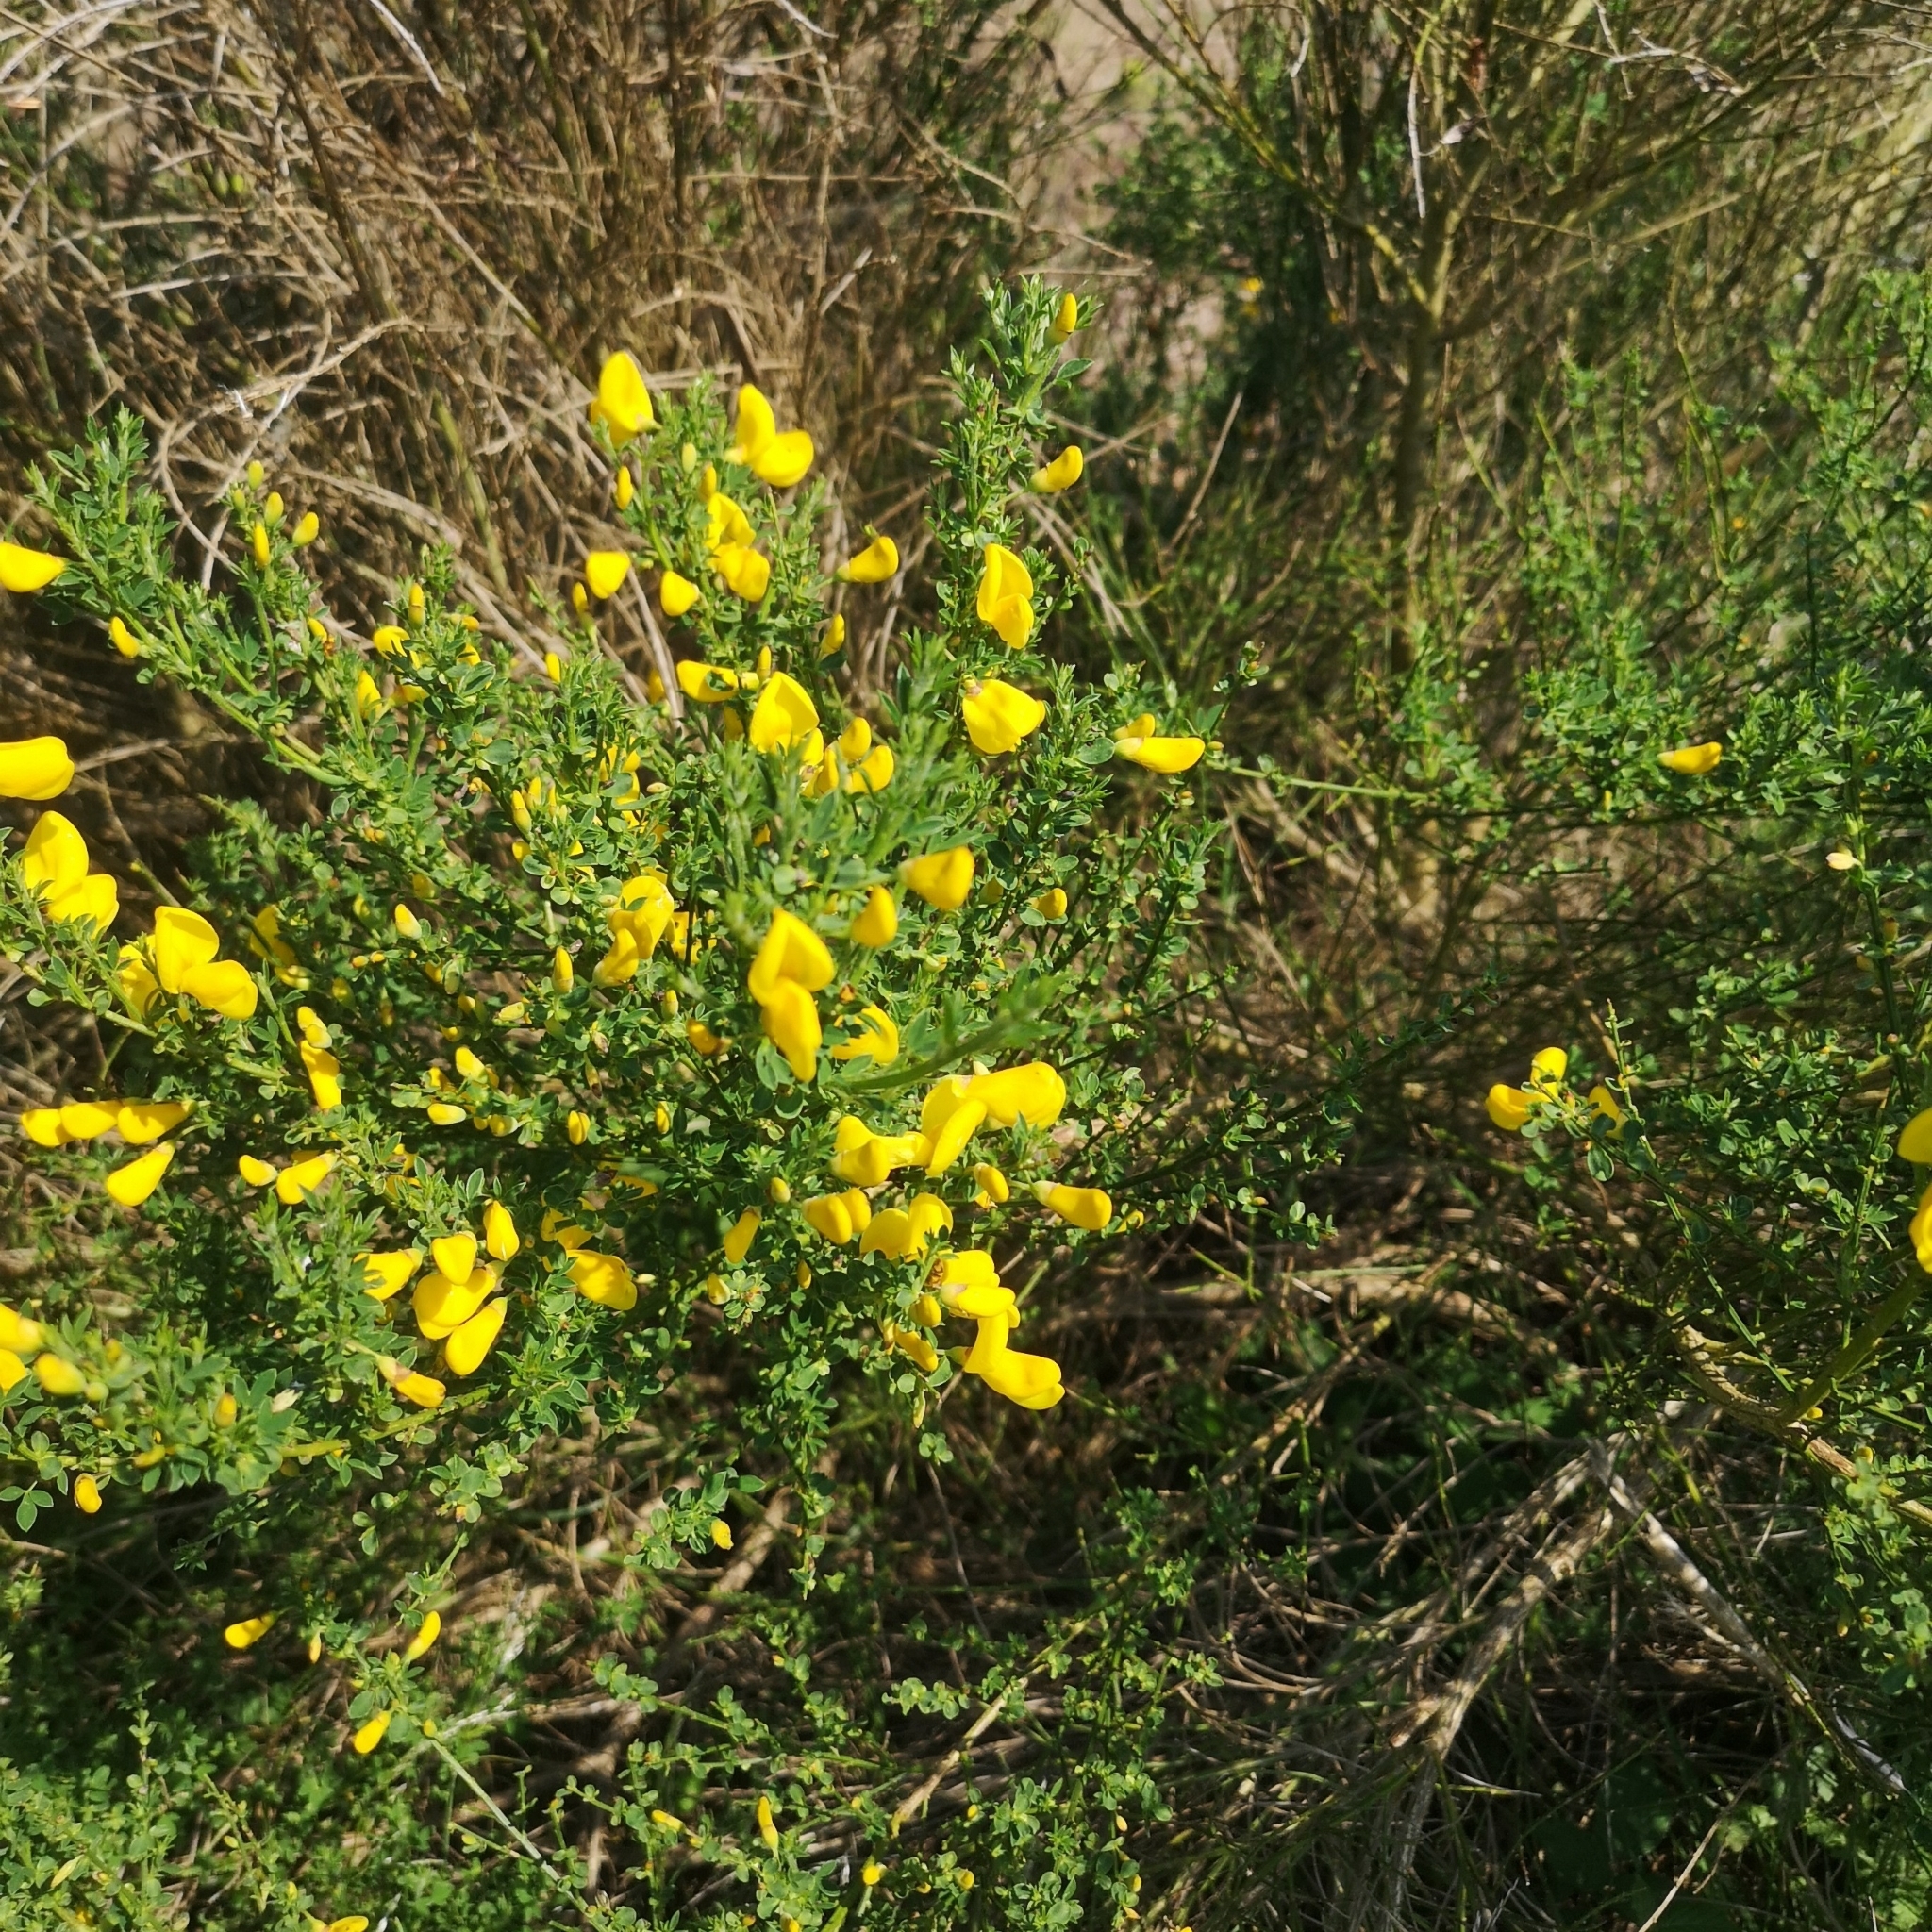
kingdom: Plantae
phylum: Tracheophyta
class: Magnoliopsida
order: Fabales
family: Fabaceae
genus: Cytisus
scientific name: Cytisus scoparius
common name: Scotch broom
